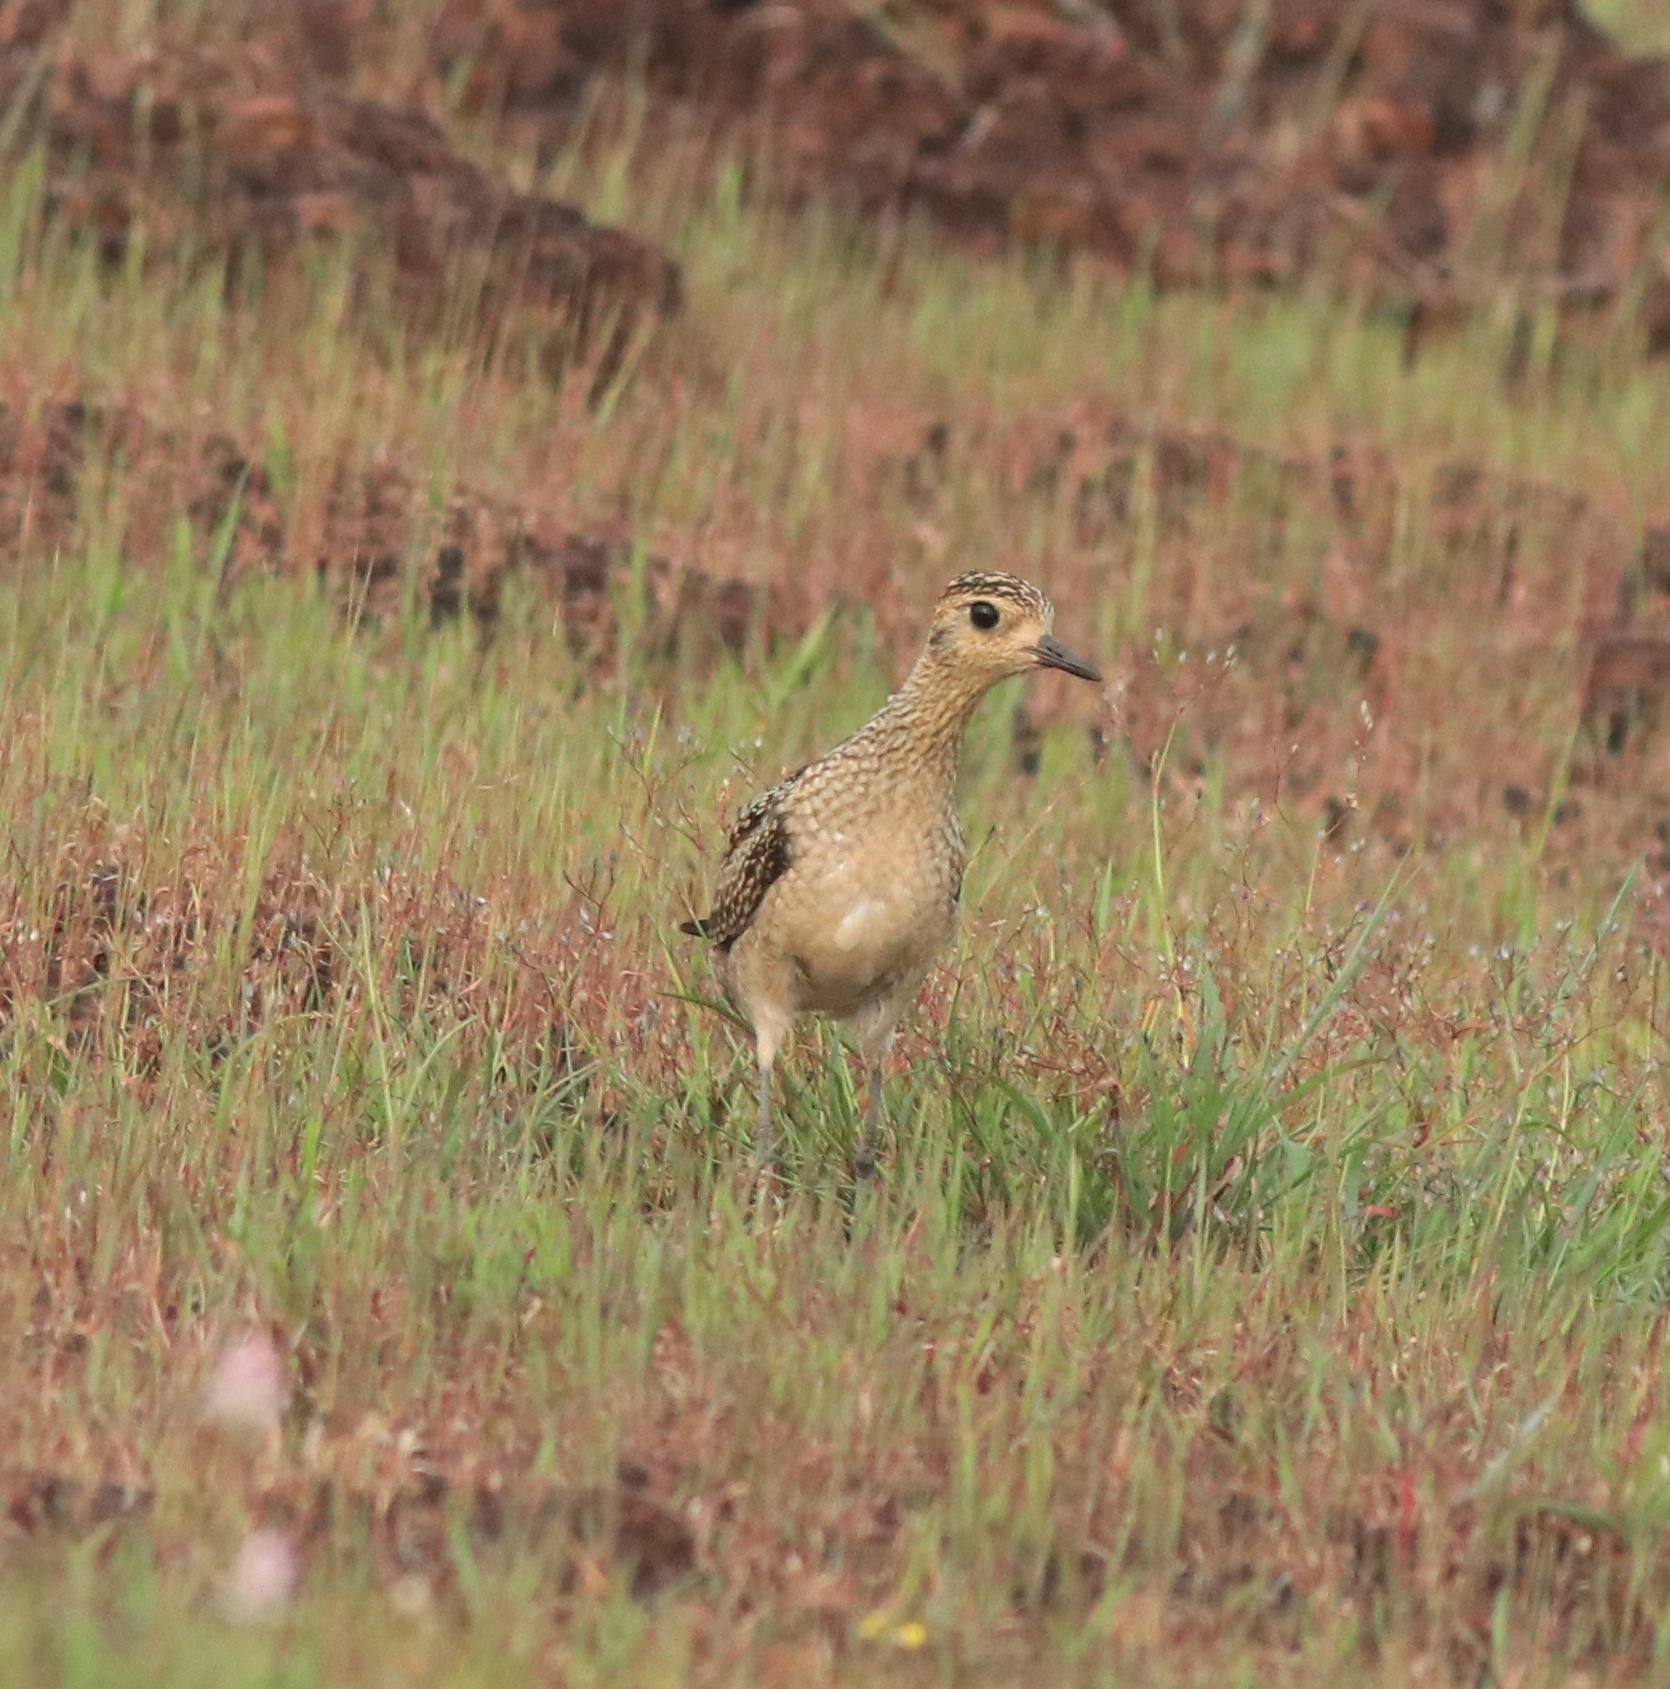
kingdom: Animalia
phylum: Chordata
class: Aves
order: Charadriiformes
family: Charadriidae
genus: Pluvialis
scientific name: Pluvialis fulva
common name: Pacific golden plover
